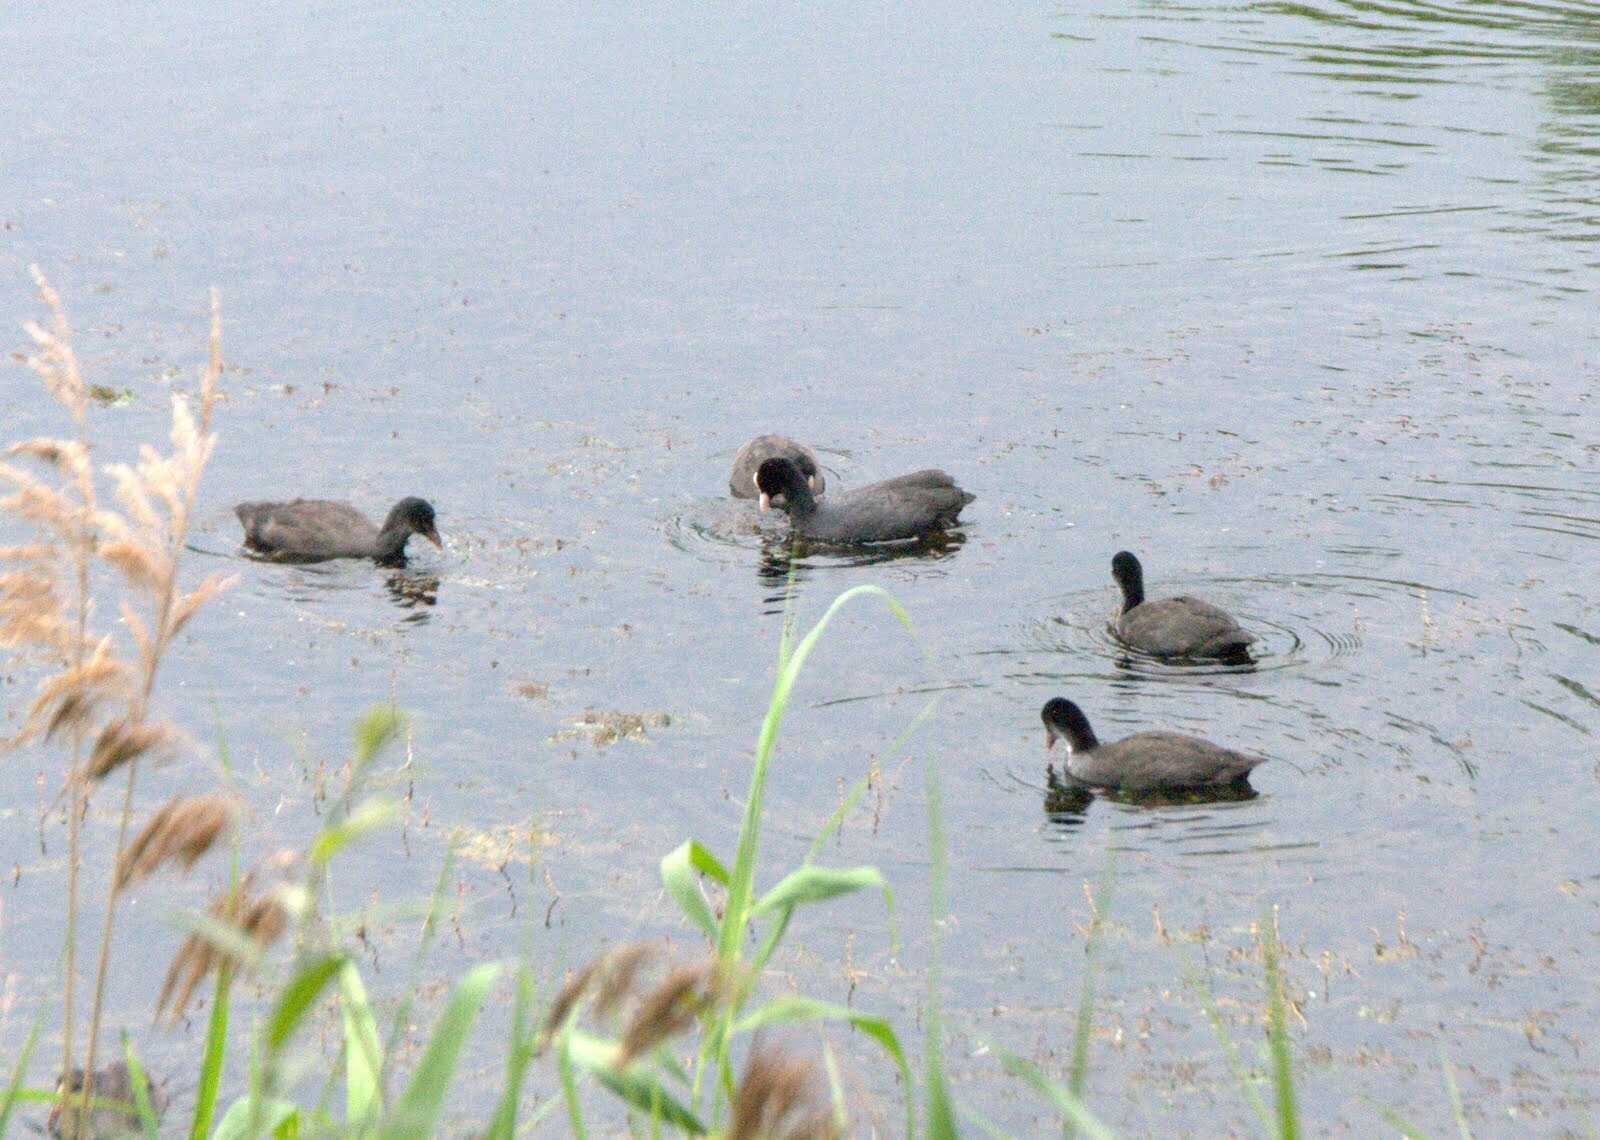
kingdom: Animalia
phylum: Chordata
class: Aves
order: Gruiformes
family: Rallidae
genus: Fulica
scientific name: Fulica atra
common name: Eurasian coot
